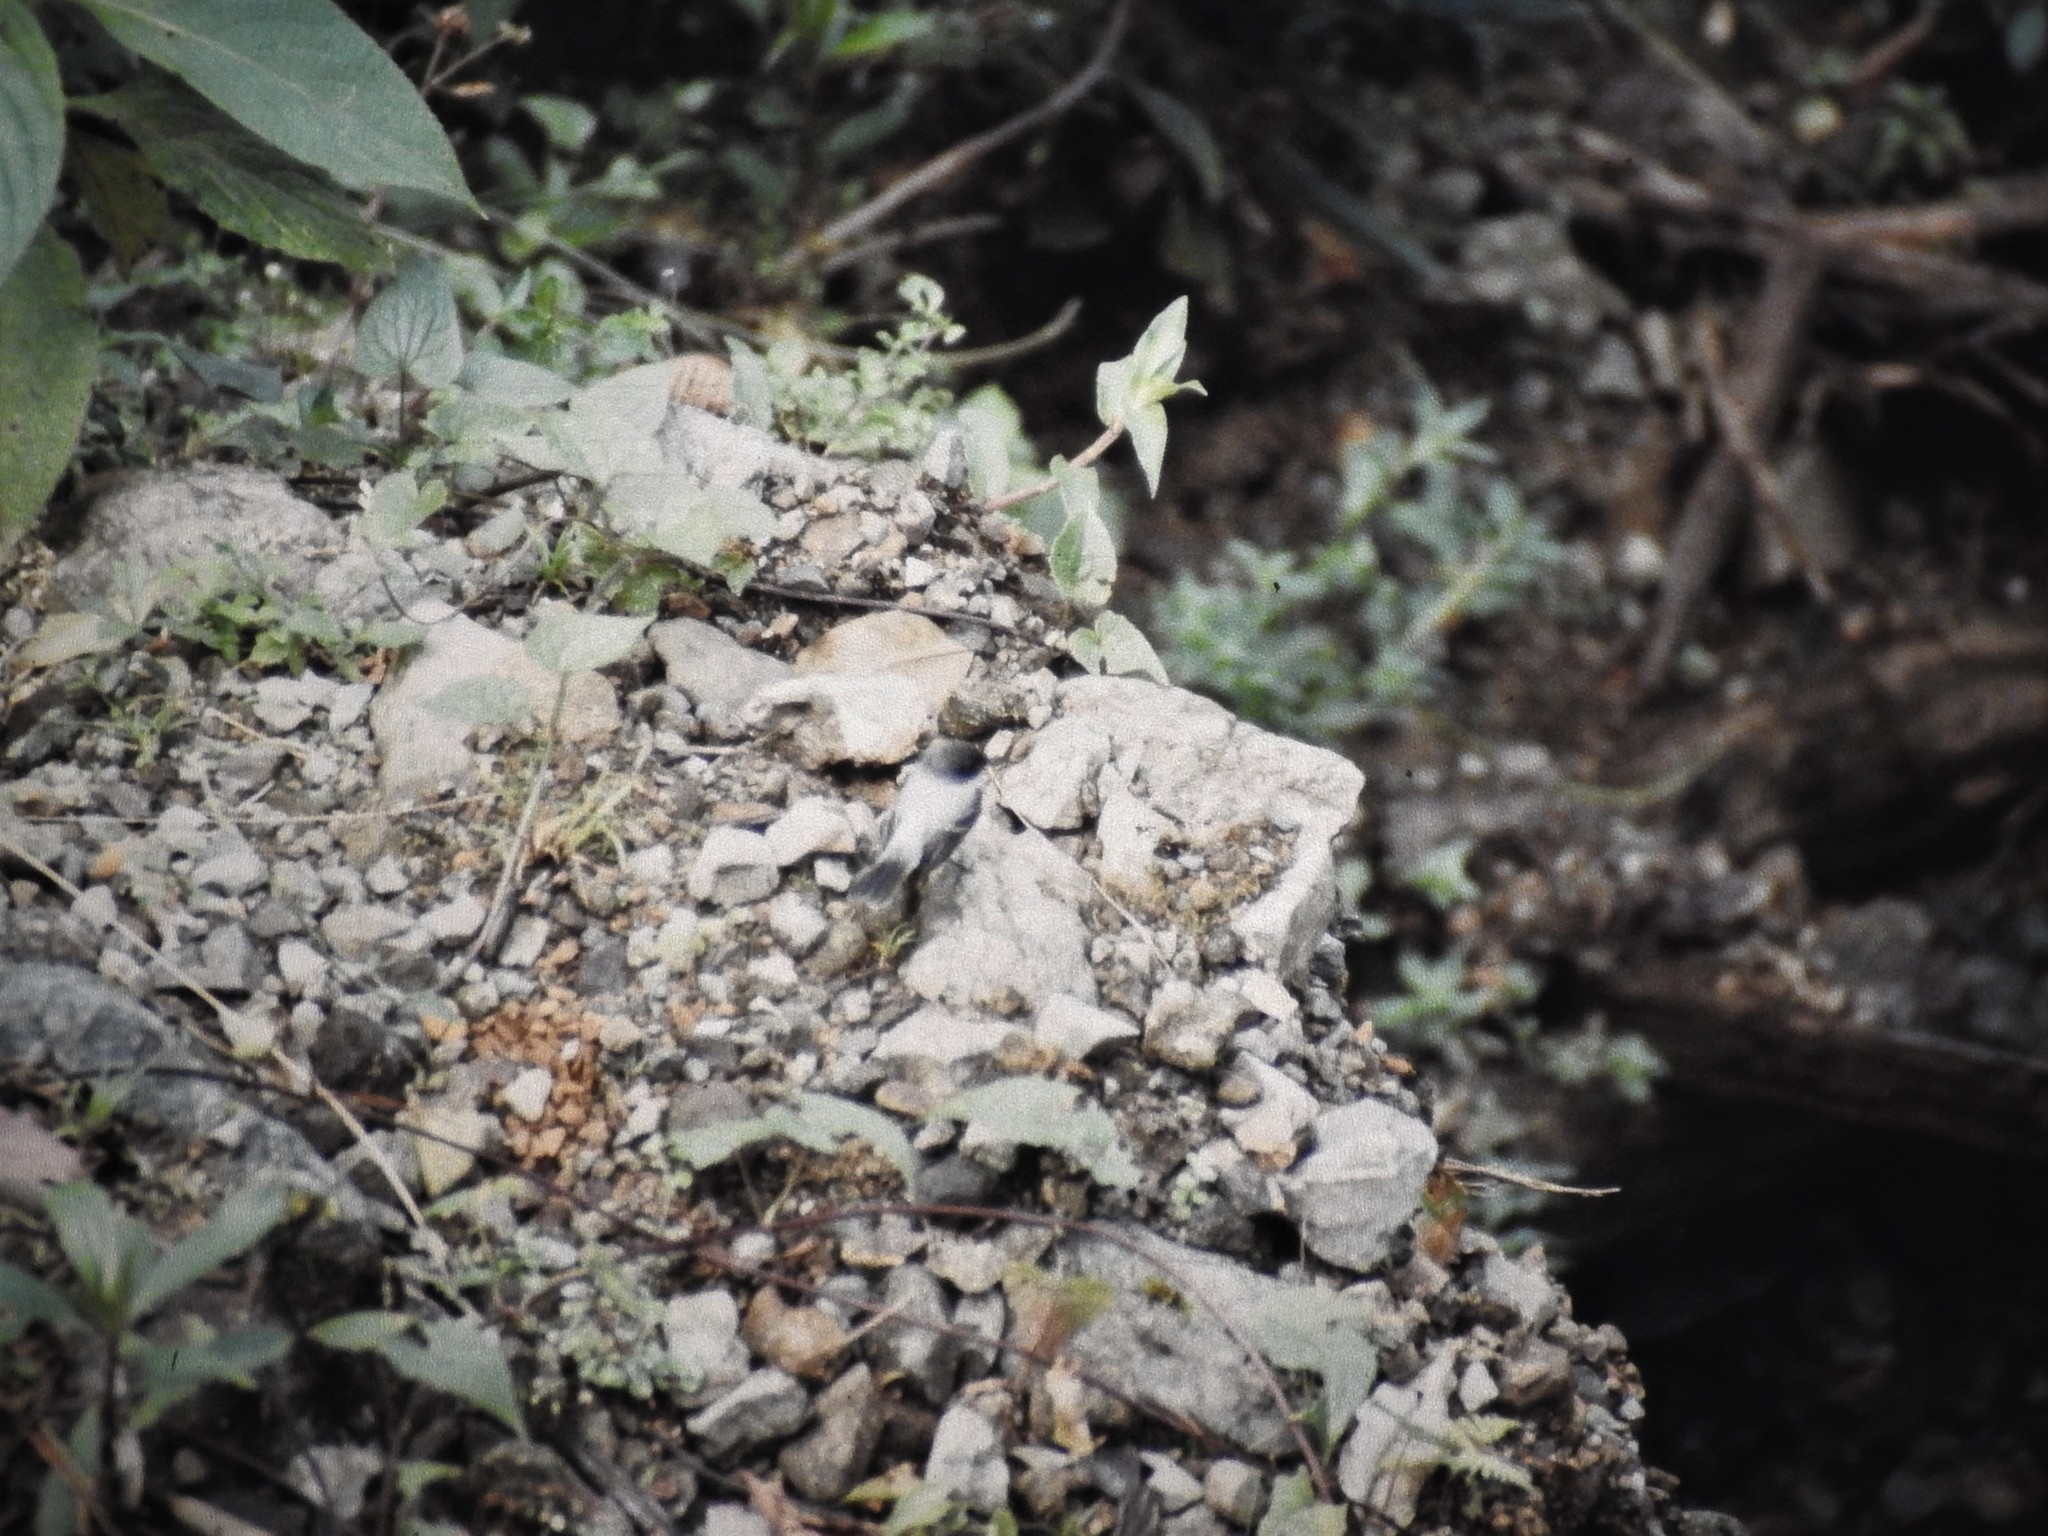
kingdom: Animalia
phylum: Chordata
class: Aves
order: Passeriformes
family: Tyrannidae
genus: Serpophaga
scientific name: Serpophaga cinerea
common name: Torrent tyrannulet
